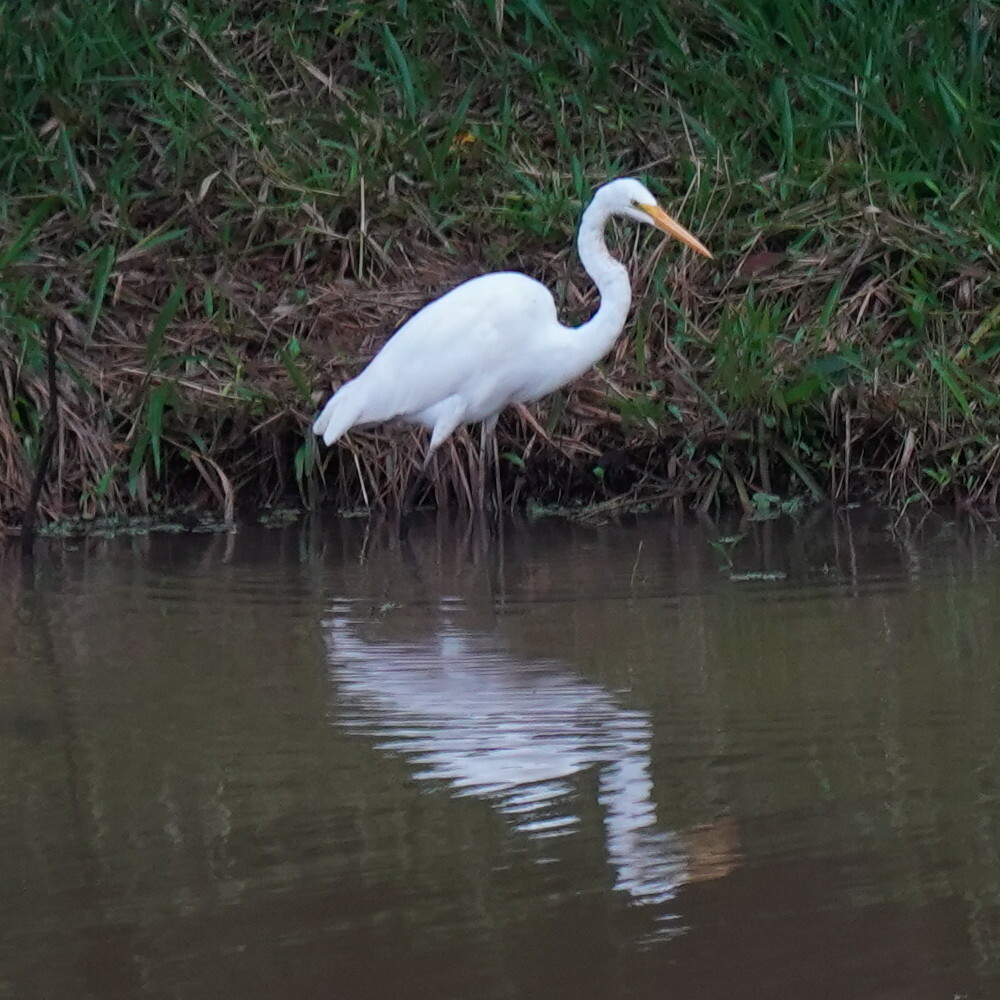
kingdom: Animalia
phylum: Chordata
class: Aves
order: Pelecaniformes
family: Ardeidae
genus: Ardea
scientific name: Ardea alba
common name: Great egret
